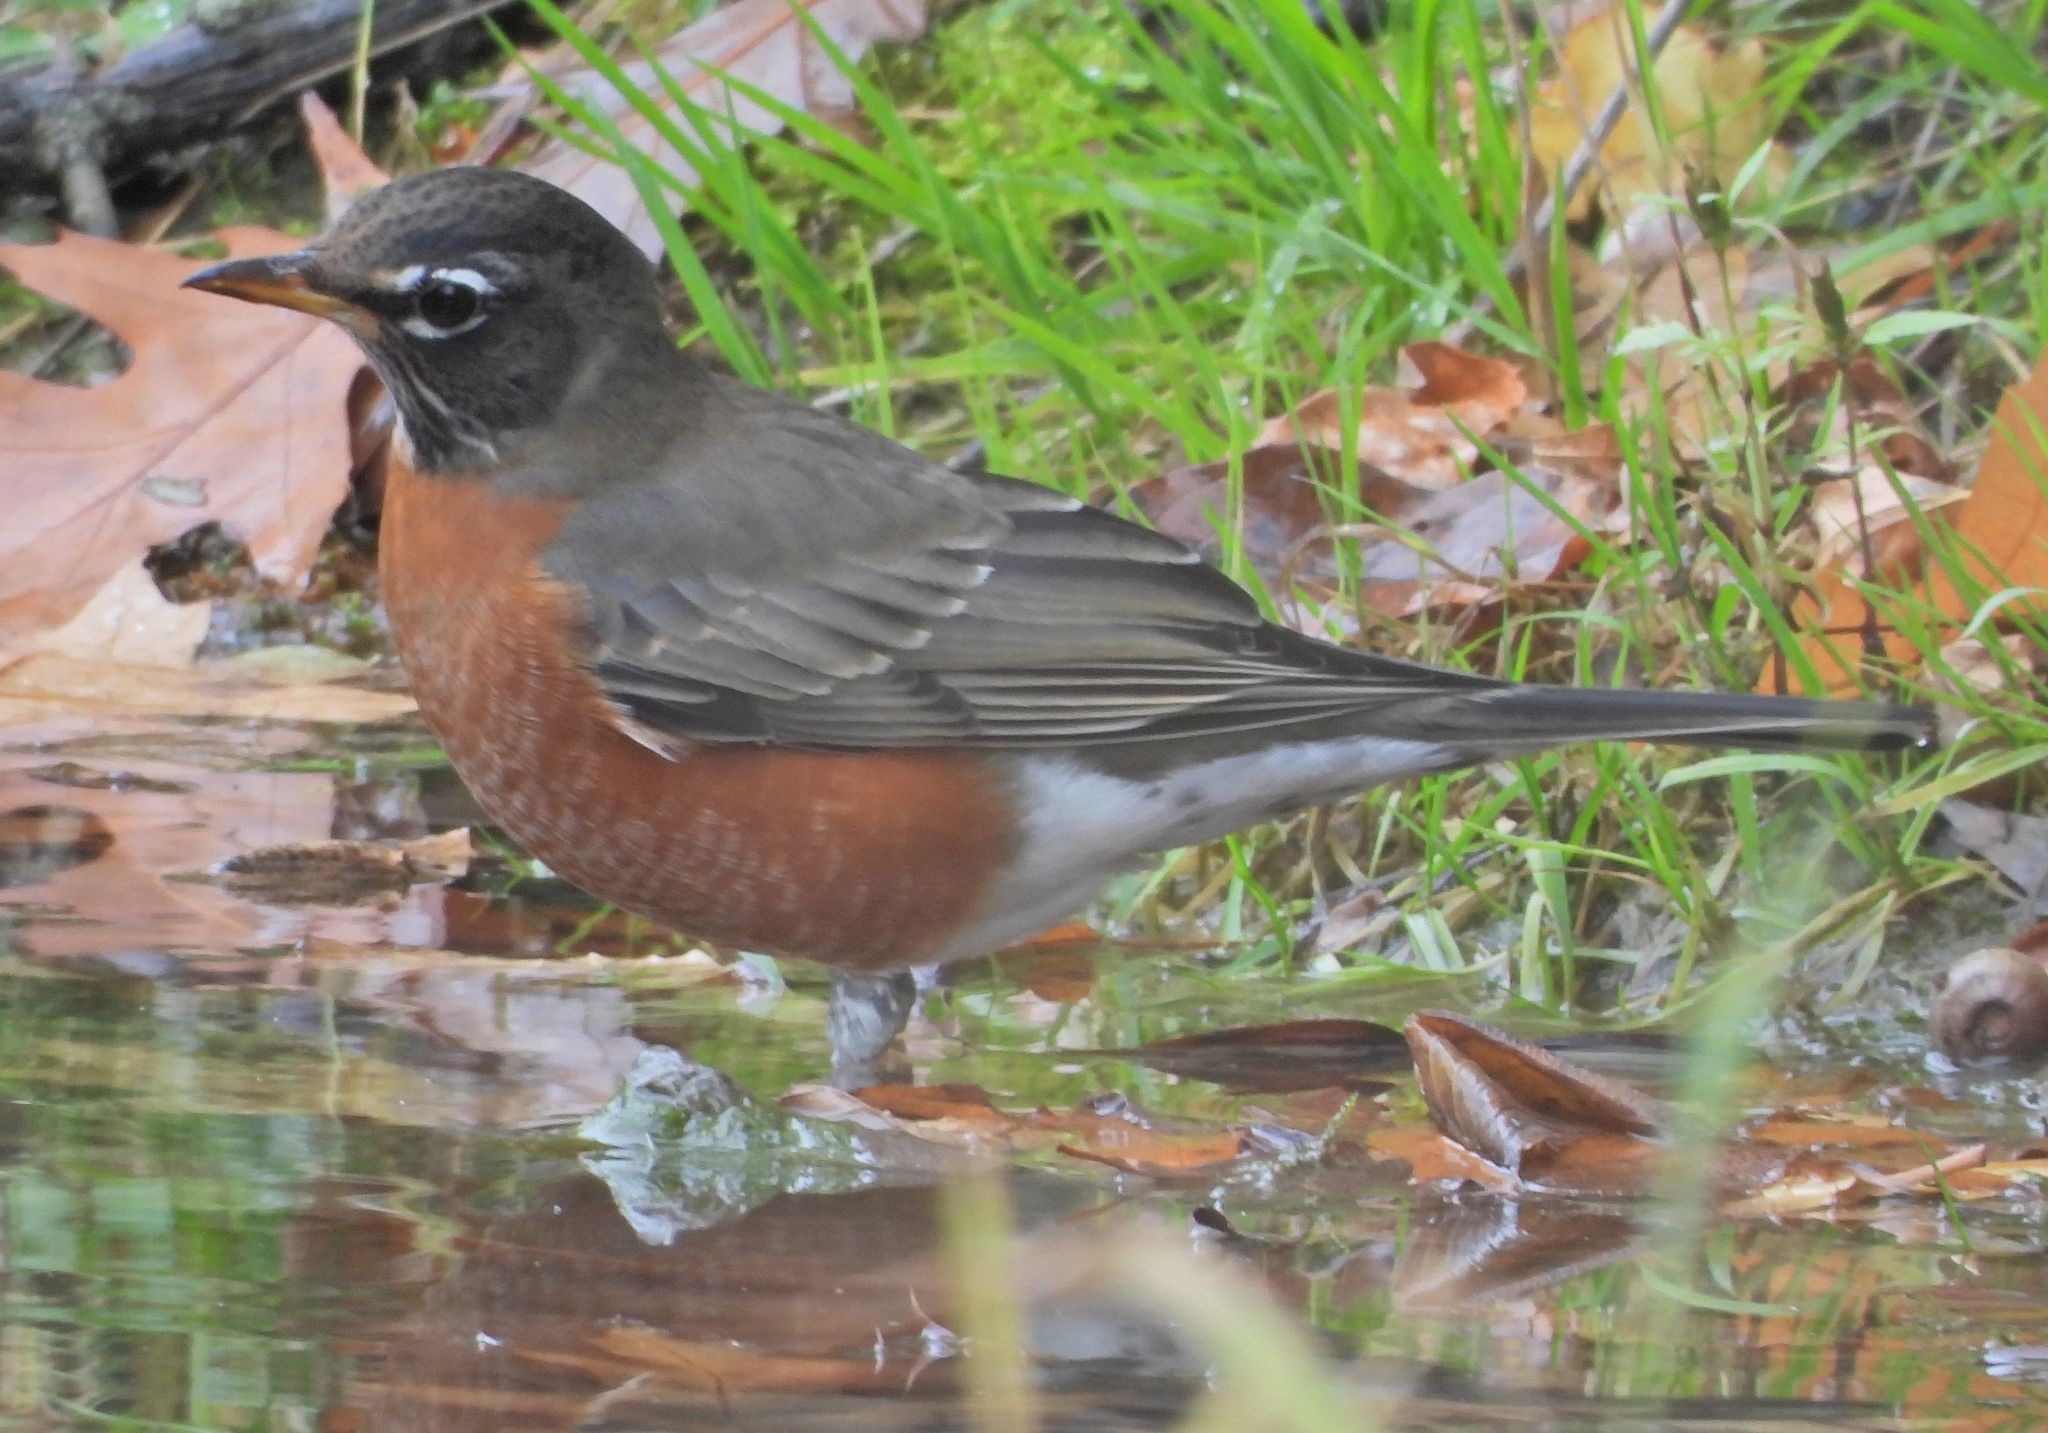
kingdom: Animalia
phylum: Chordata
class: Aves
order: Passeriformes
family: Turdidae
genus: Turdus
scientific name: Turdus migratorius
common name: American robin
